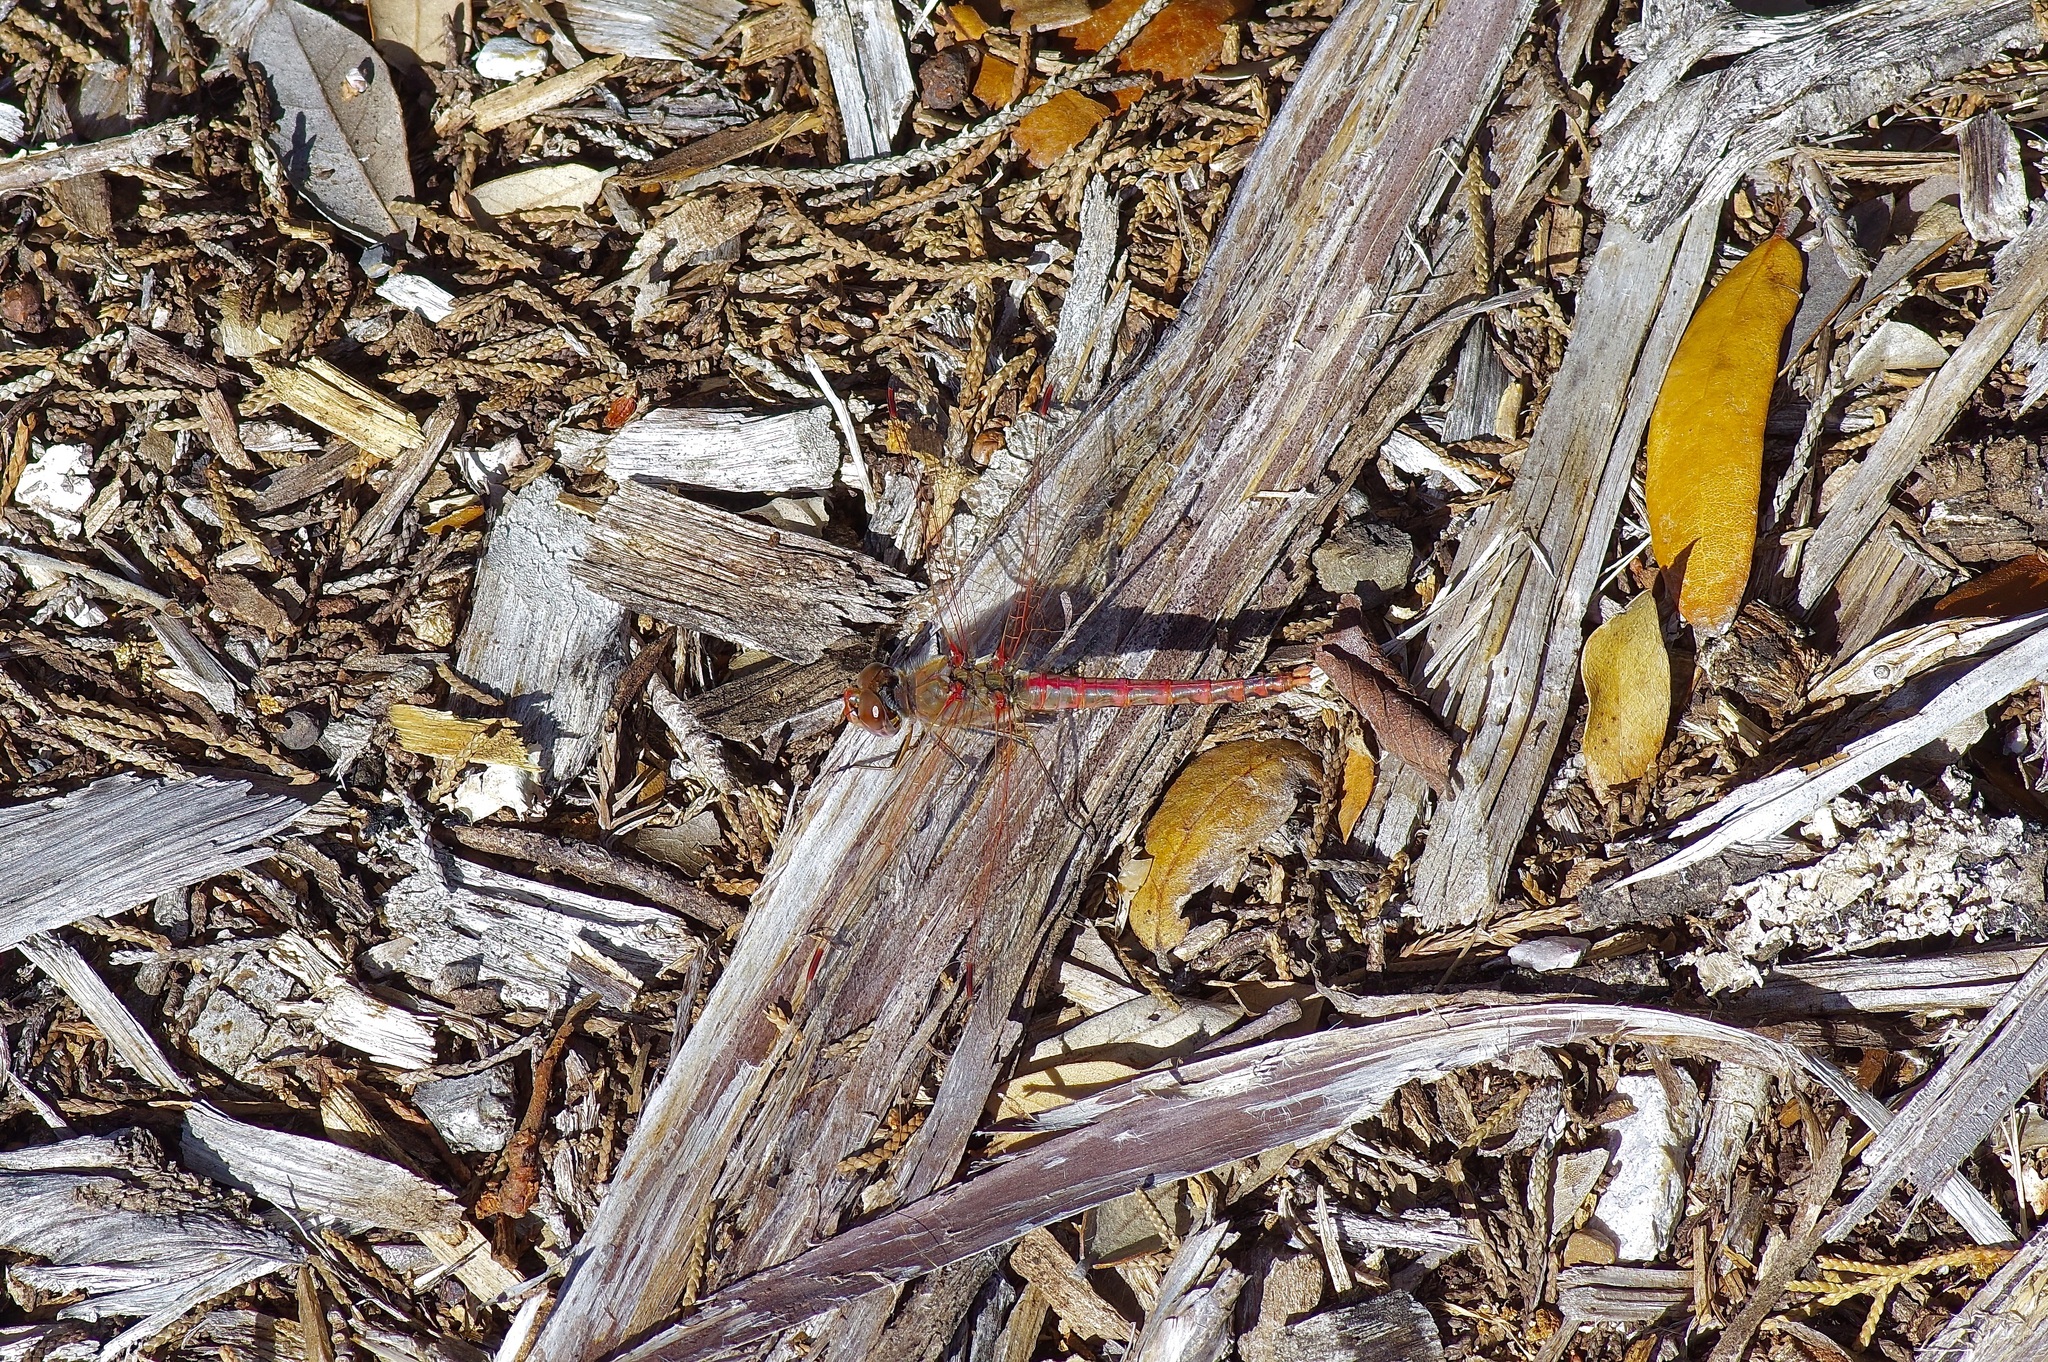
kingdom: Animalia
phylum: Arthropoda
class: Insecta
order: Odonata
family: Libellulidae
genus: Sympetrum
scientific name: Sympetrum corruptum
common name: Variegated meadowhawk
